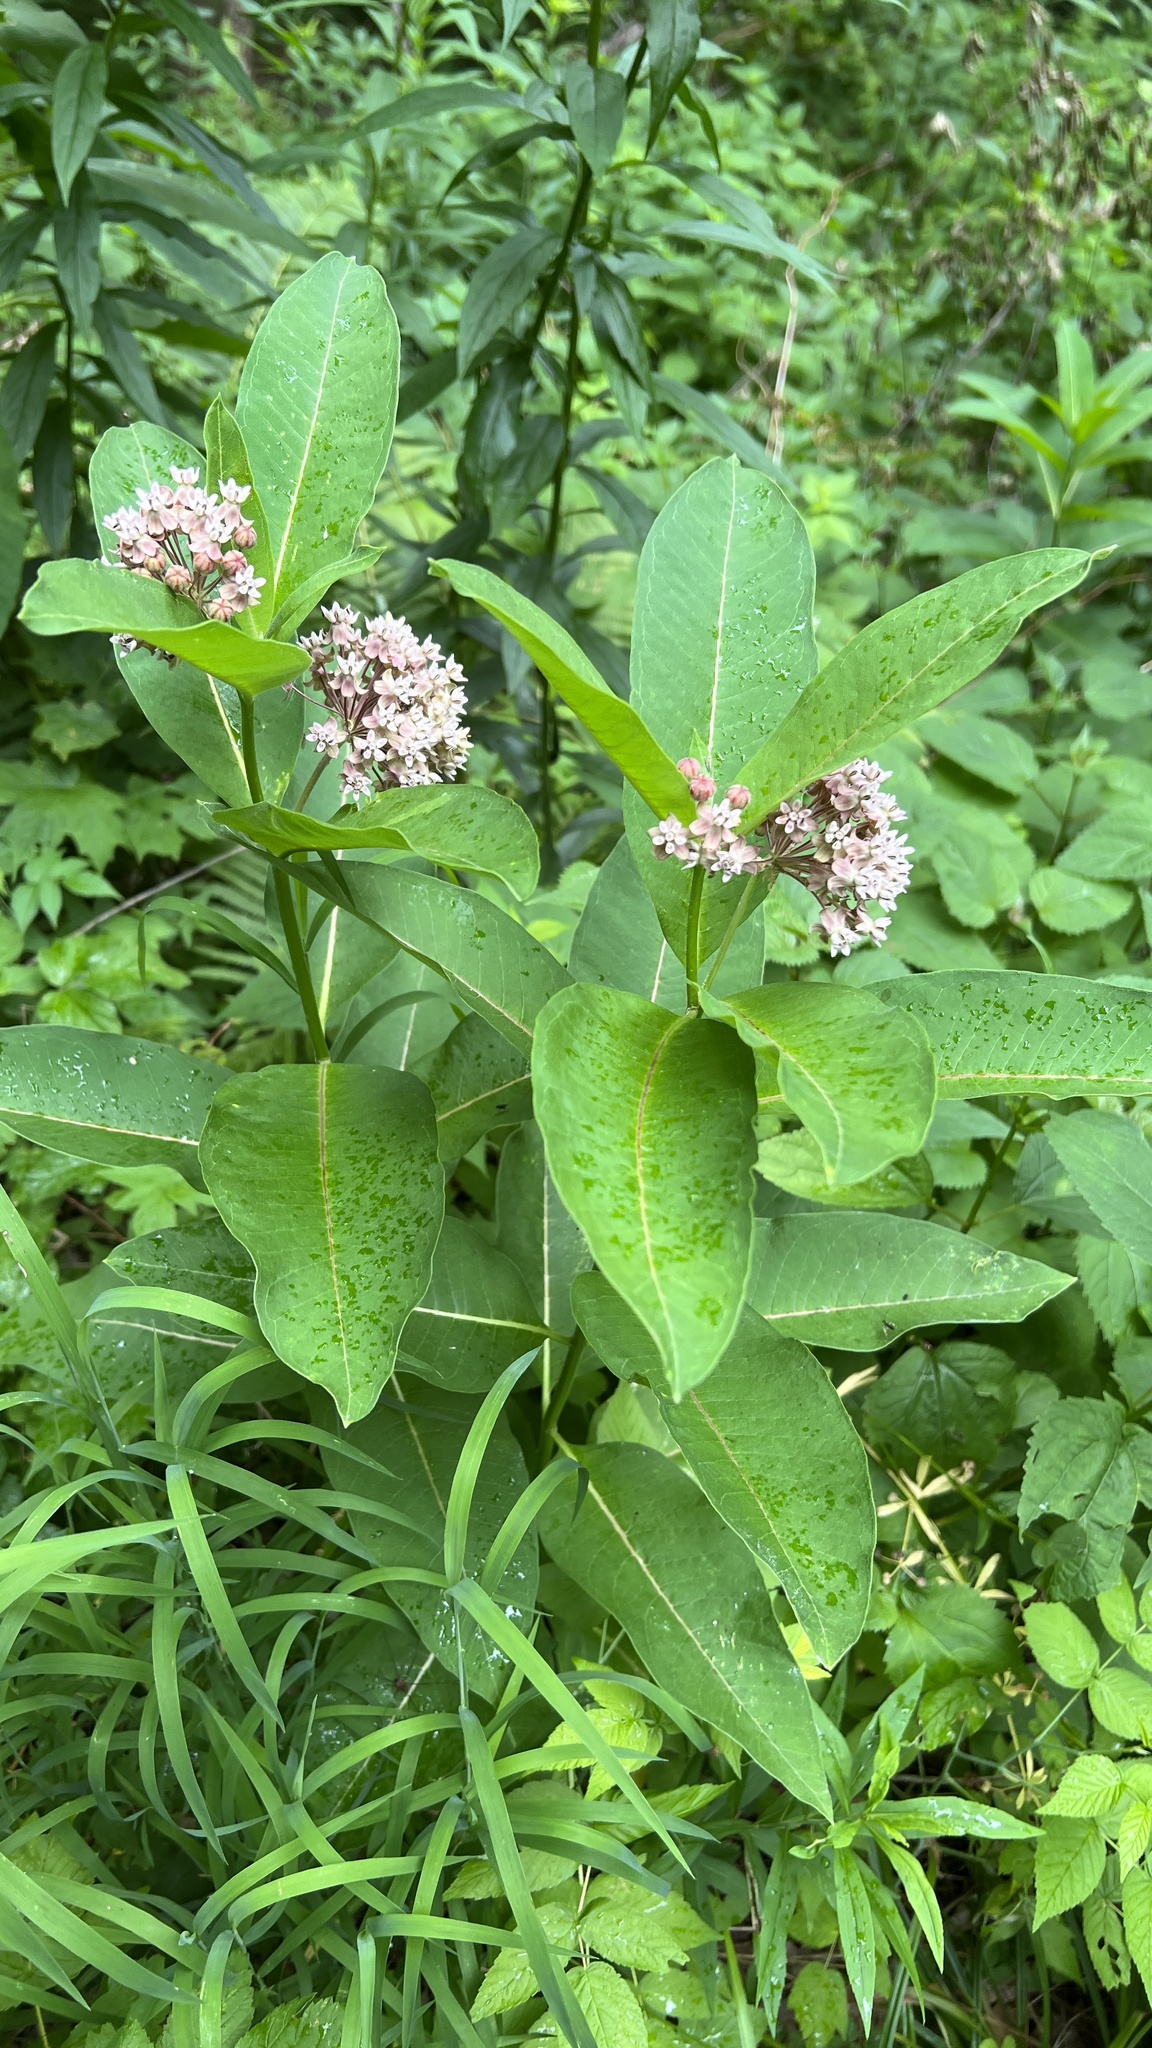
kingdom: Plantae
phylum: Tracheophyta
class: Magnoliopsida
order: Gentianales
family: Apocynaceae
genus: Asclepias
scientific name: Asclepias syriaca
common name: Common milkweed
